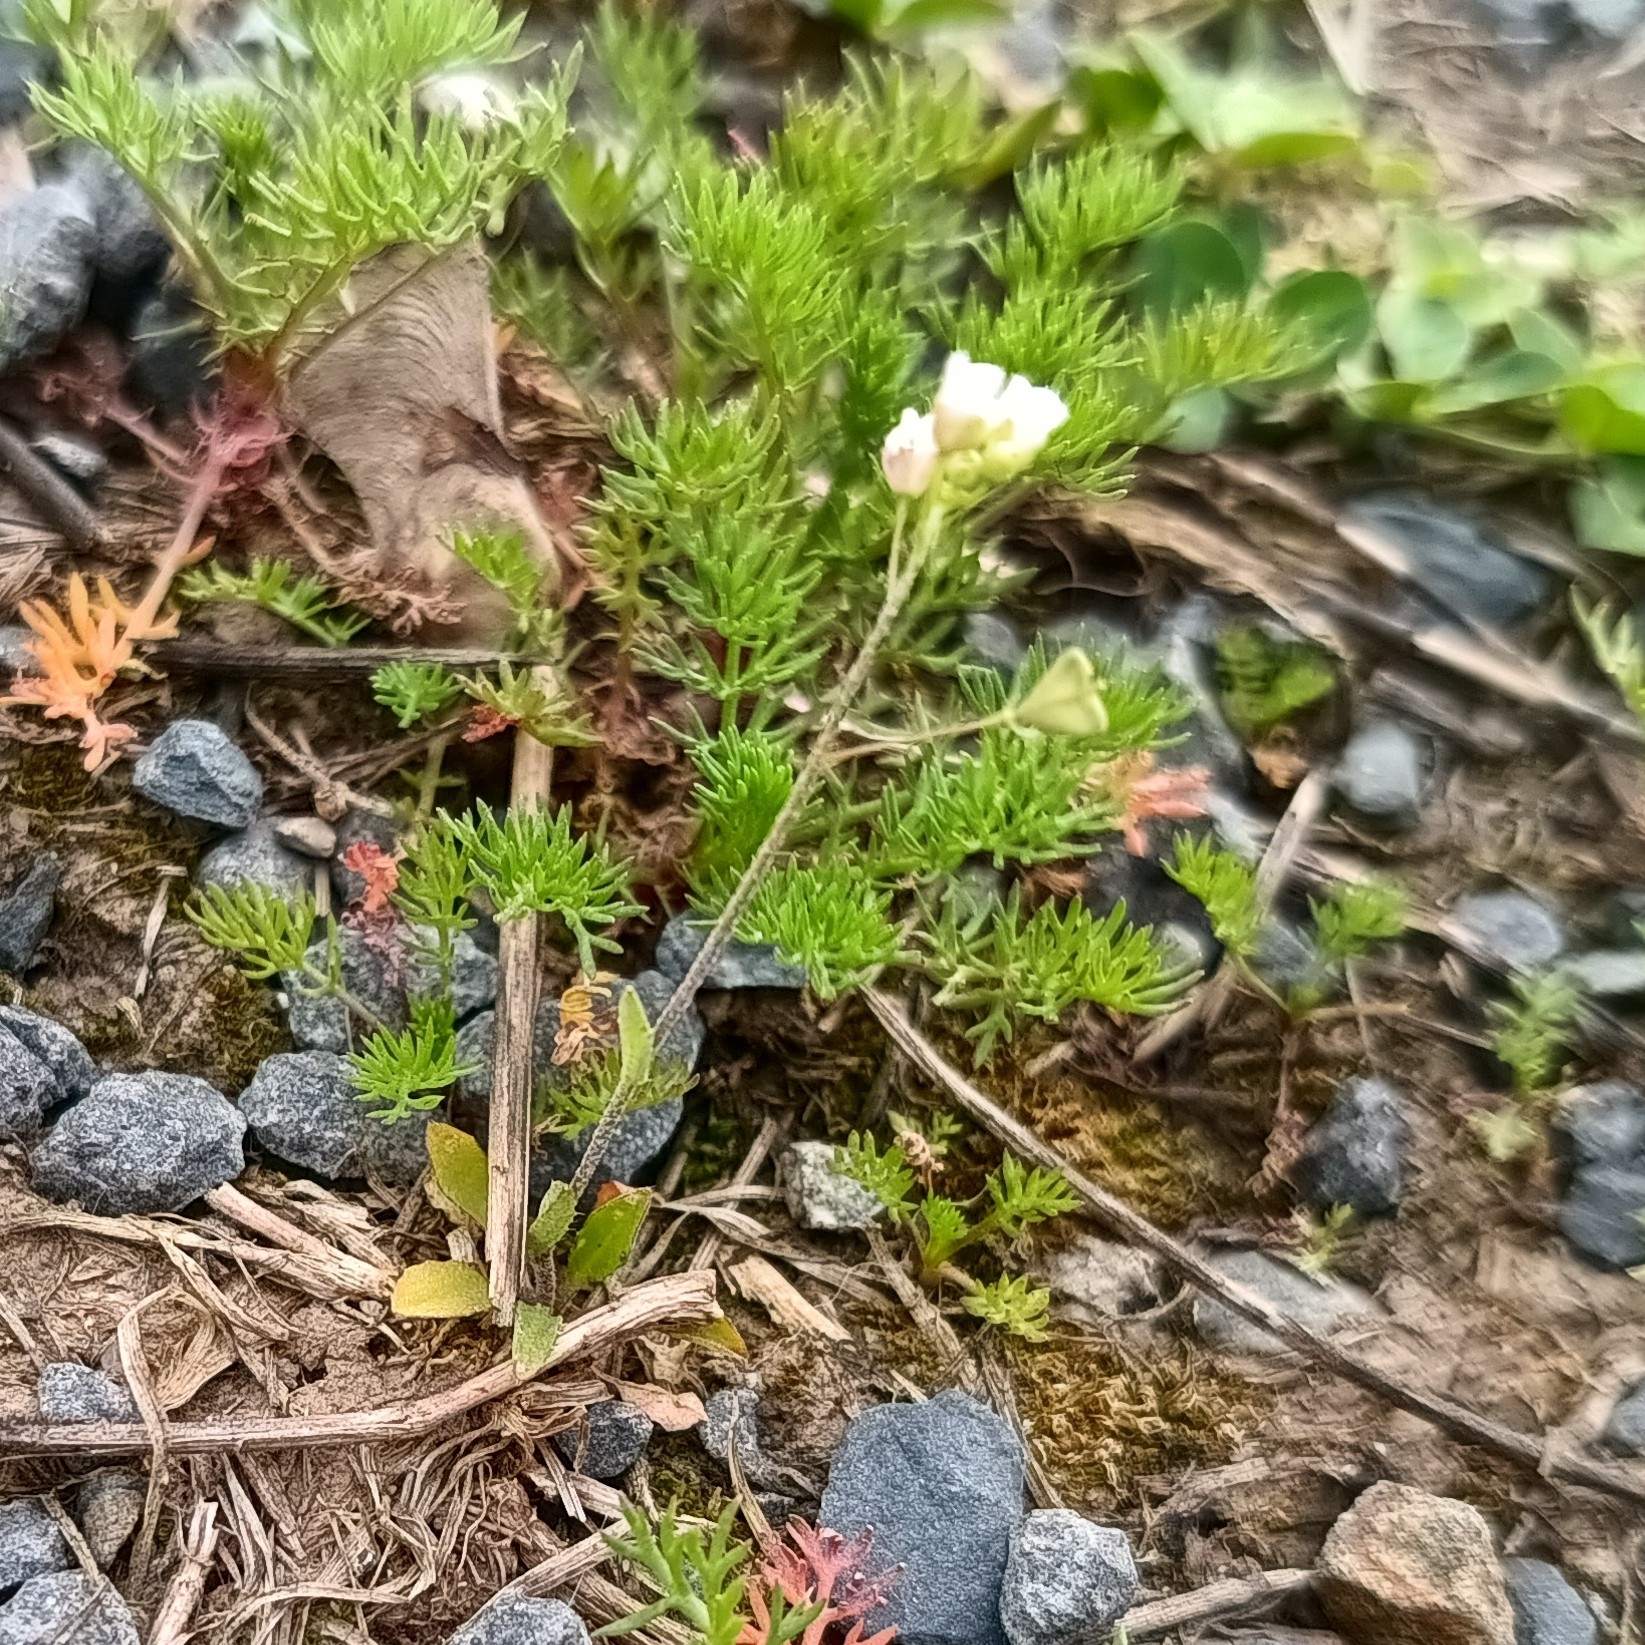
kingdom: Plantae
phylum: Tracheophyta
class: Magnoliopsida
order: Brassicales
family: Brassicaceae
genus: Capsella
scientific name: Capsella bursa-pastoris
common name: Shepherd's purse
